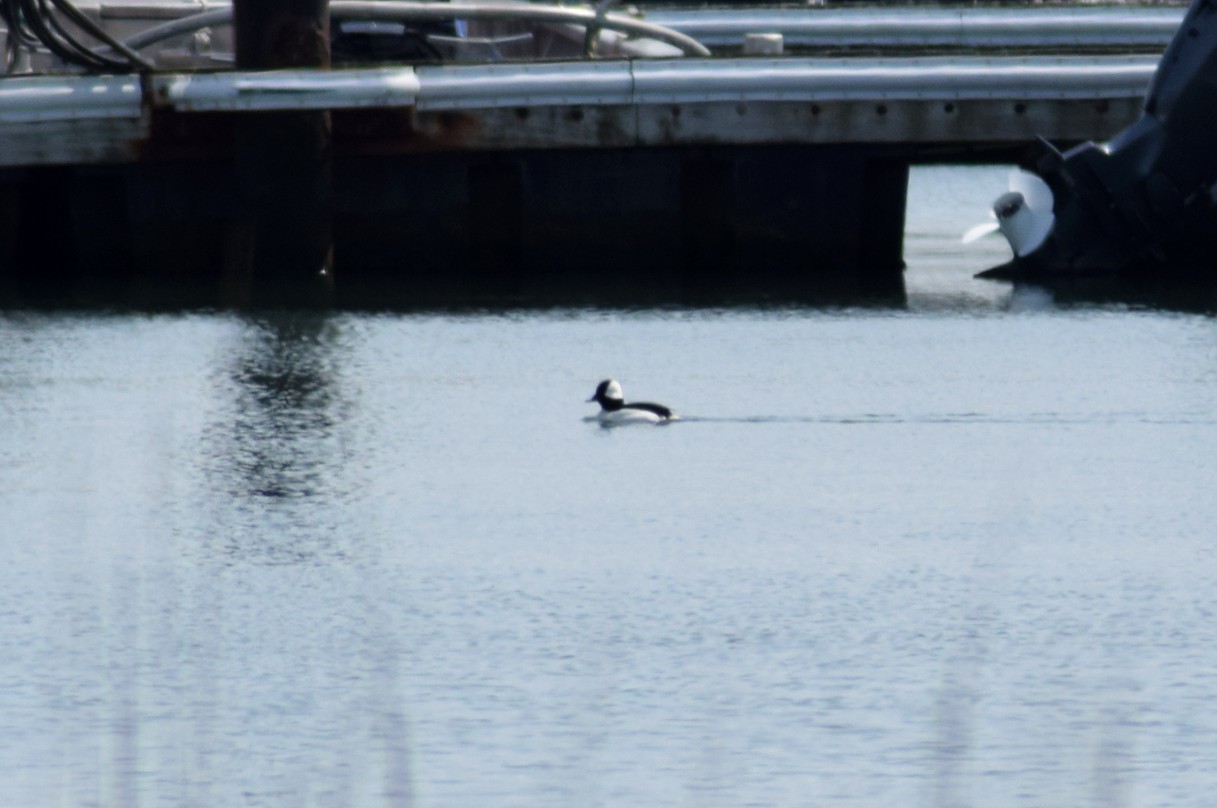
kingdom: Animalia
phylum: Chordata
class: Aves
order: Anseriformes
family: Anatidae
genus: Bucephala
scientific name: Bucephala albeola
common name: Bufflehead
